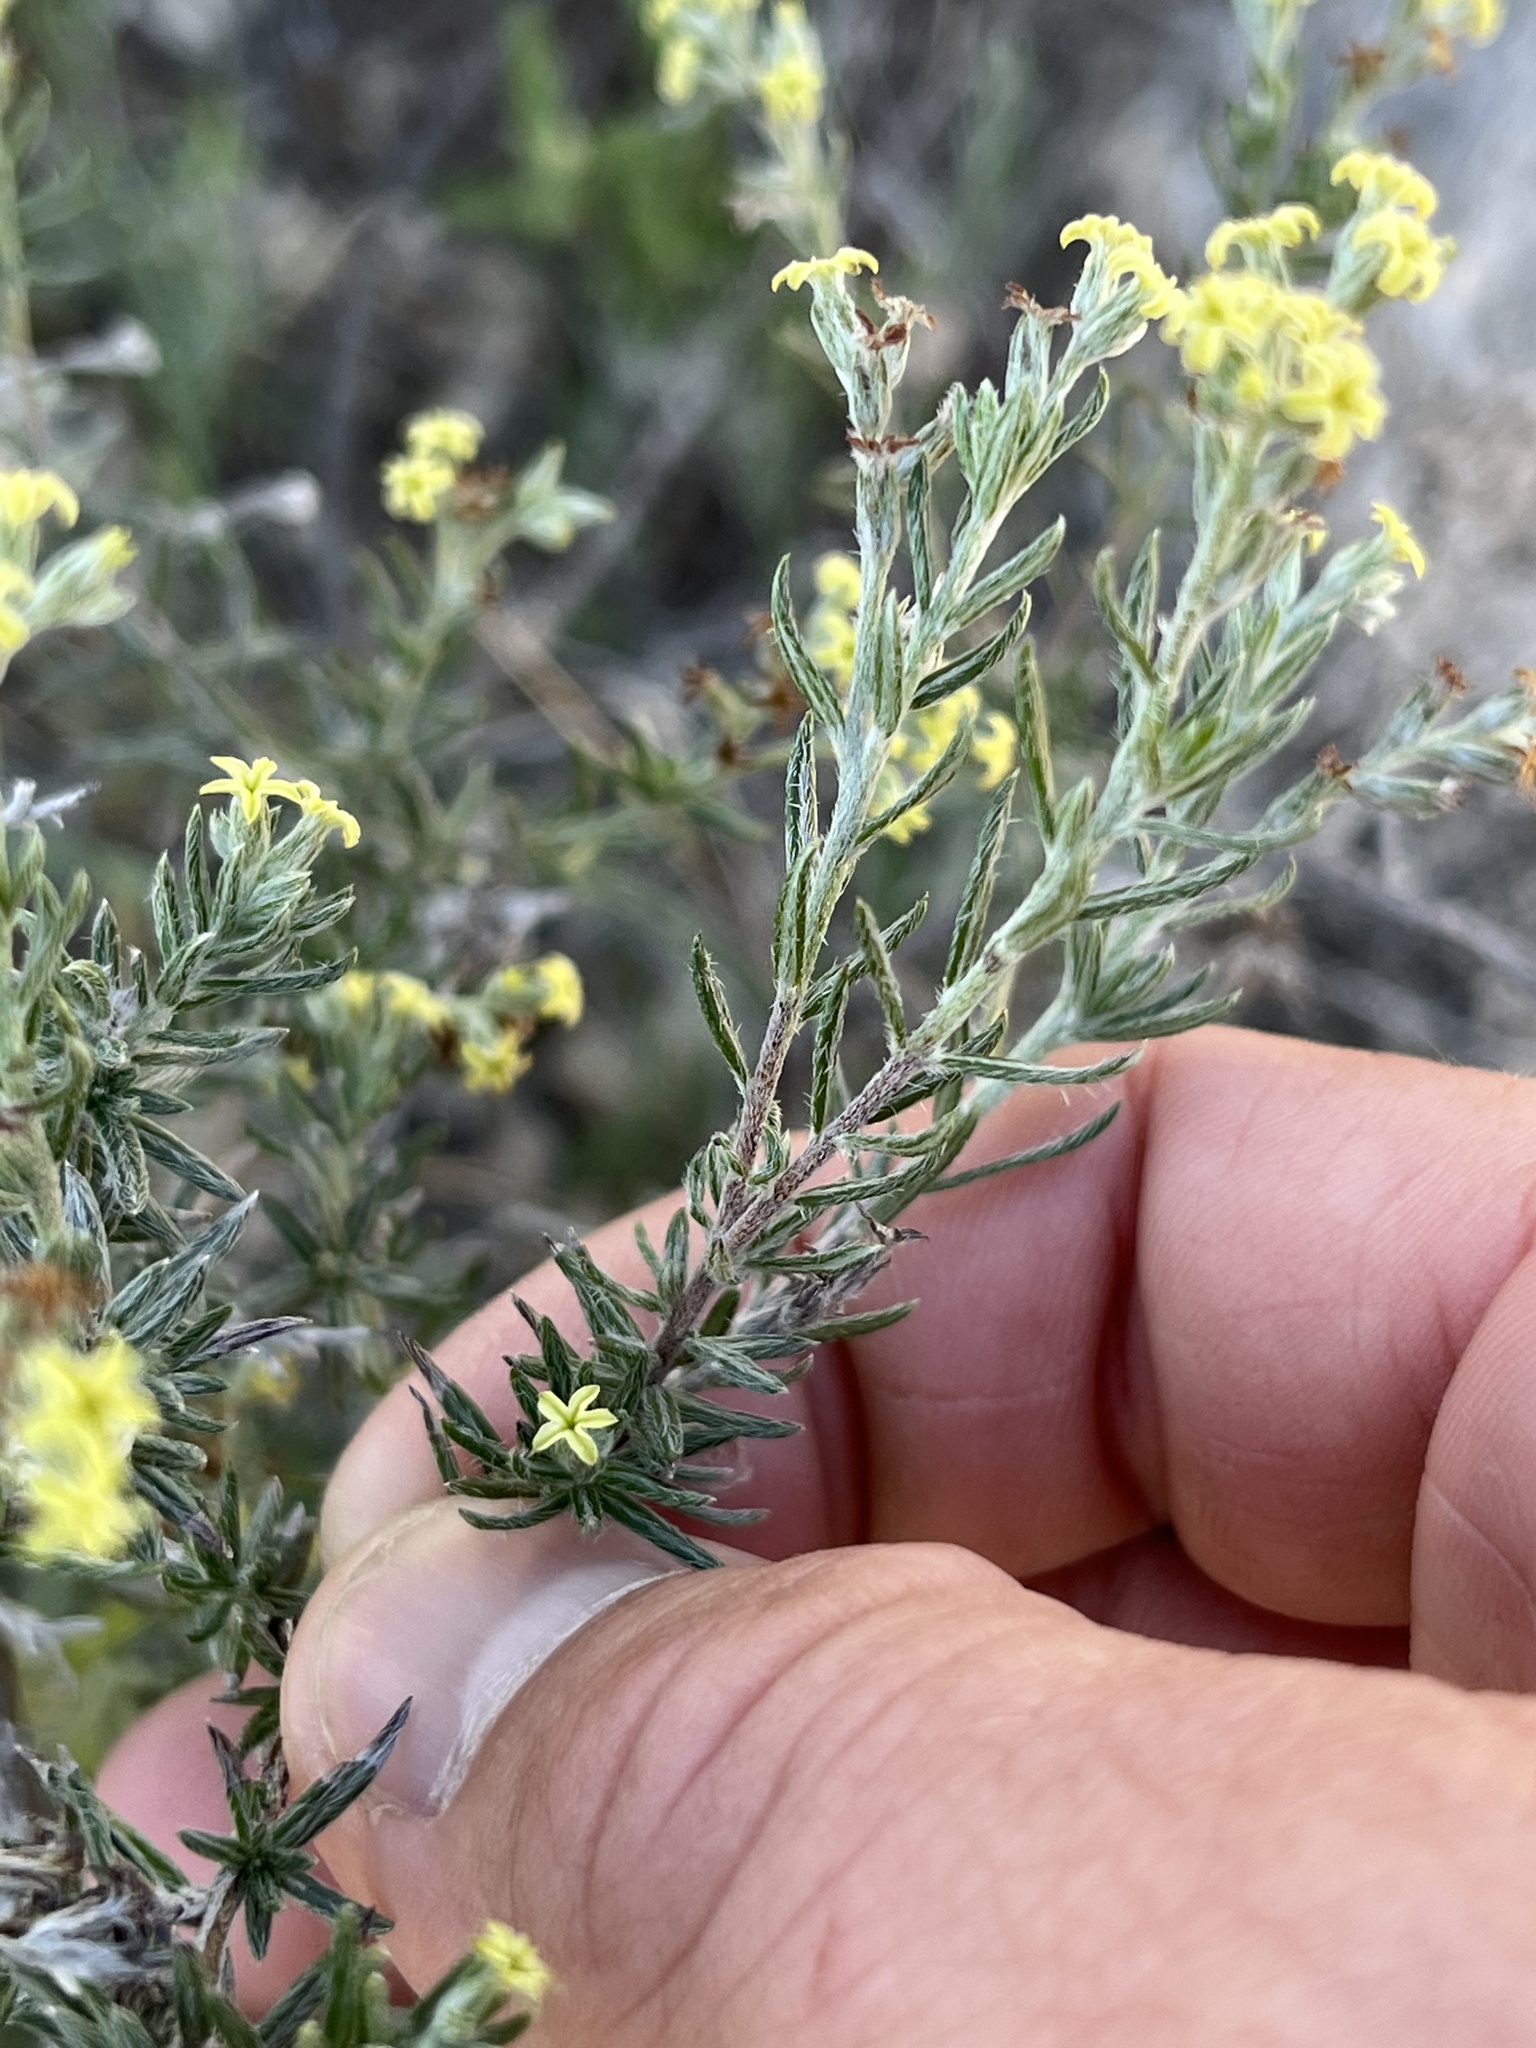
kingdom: Plantae
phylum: Tracheophyta
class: Magnoliopsida
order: Boraginales
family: Heliotropiaceae
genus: Euploca
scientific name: Euploca torreyi
